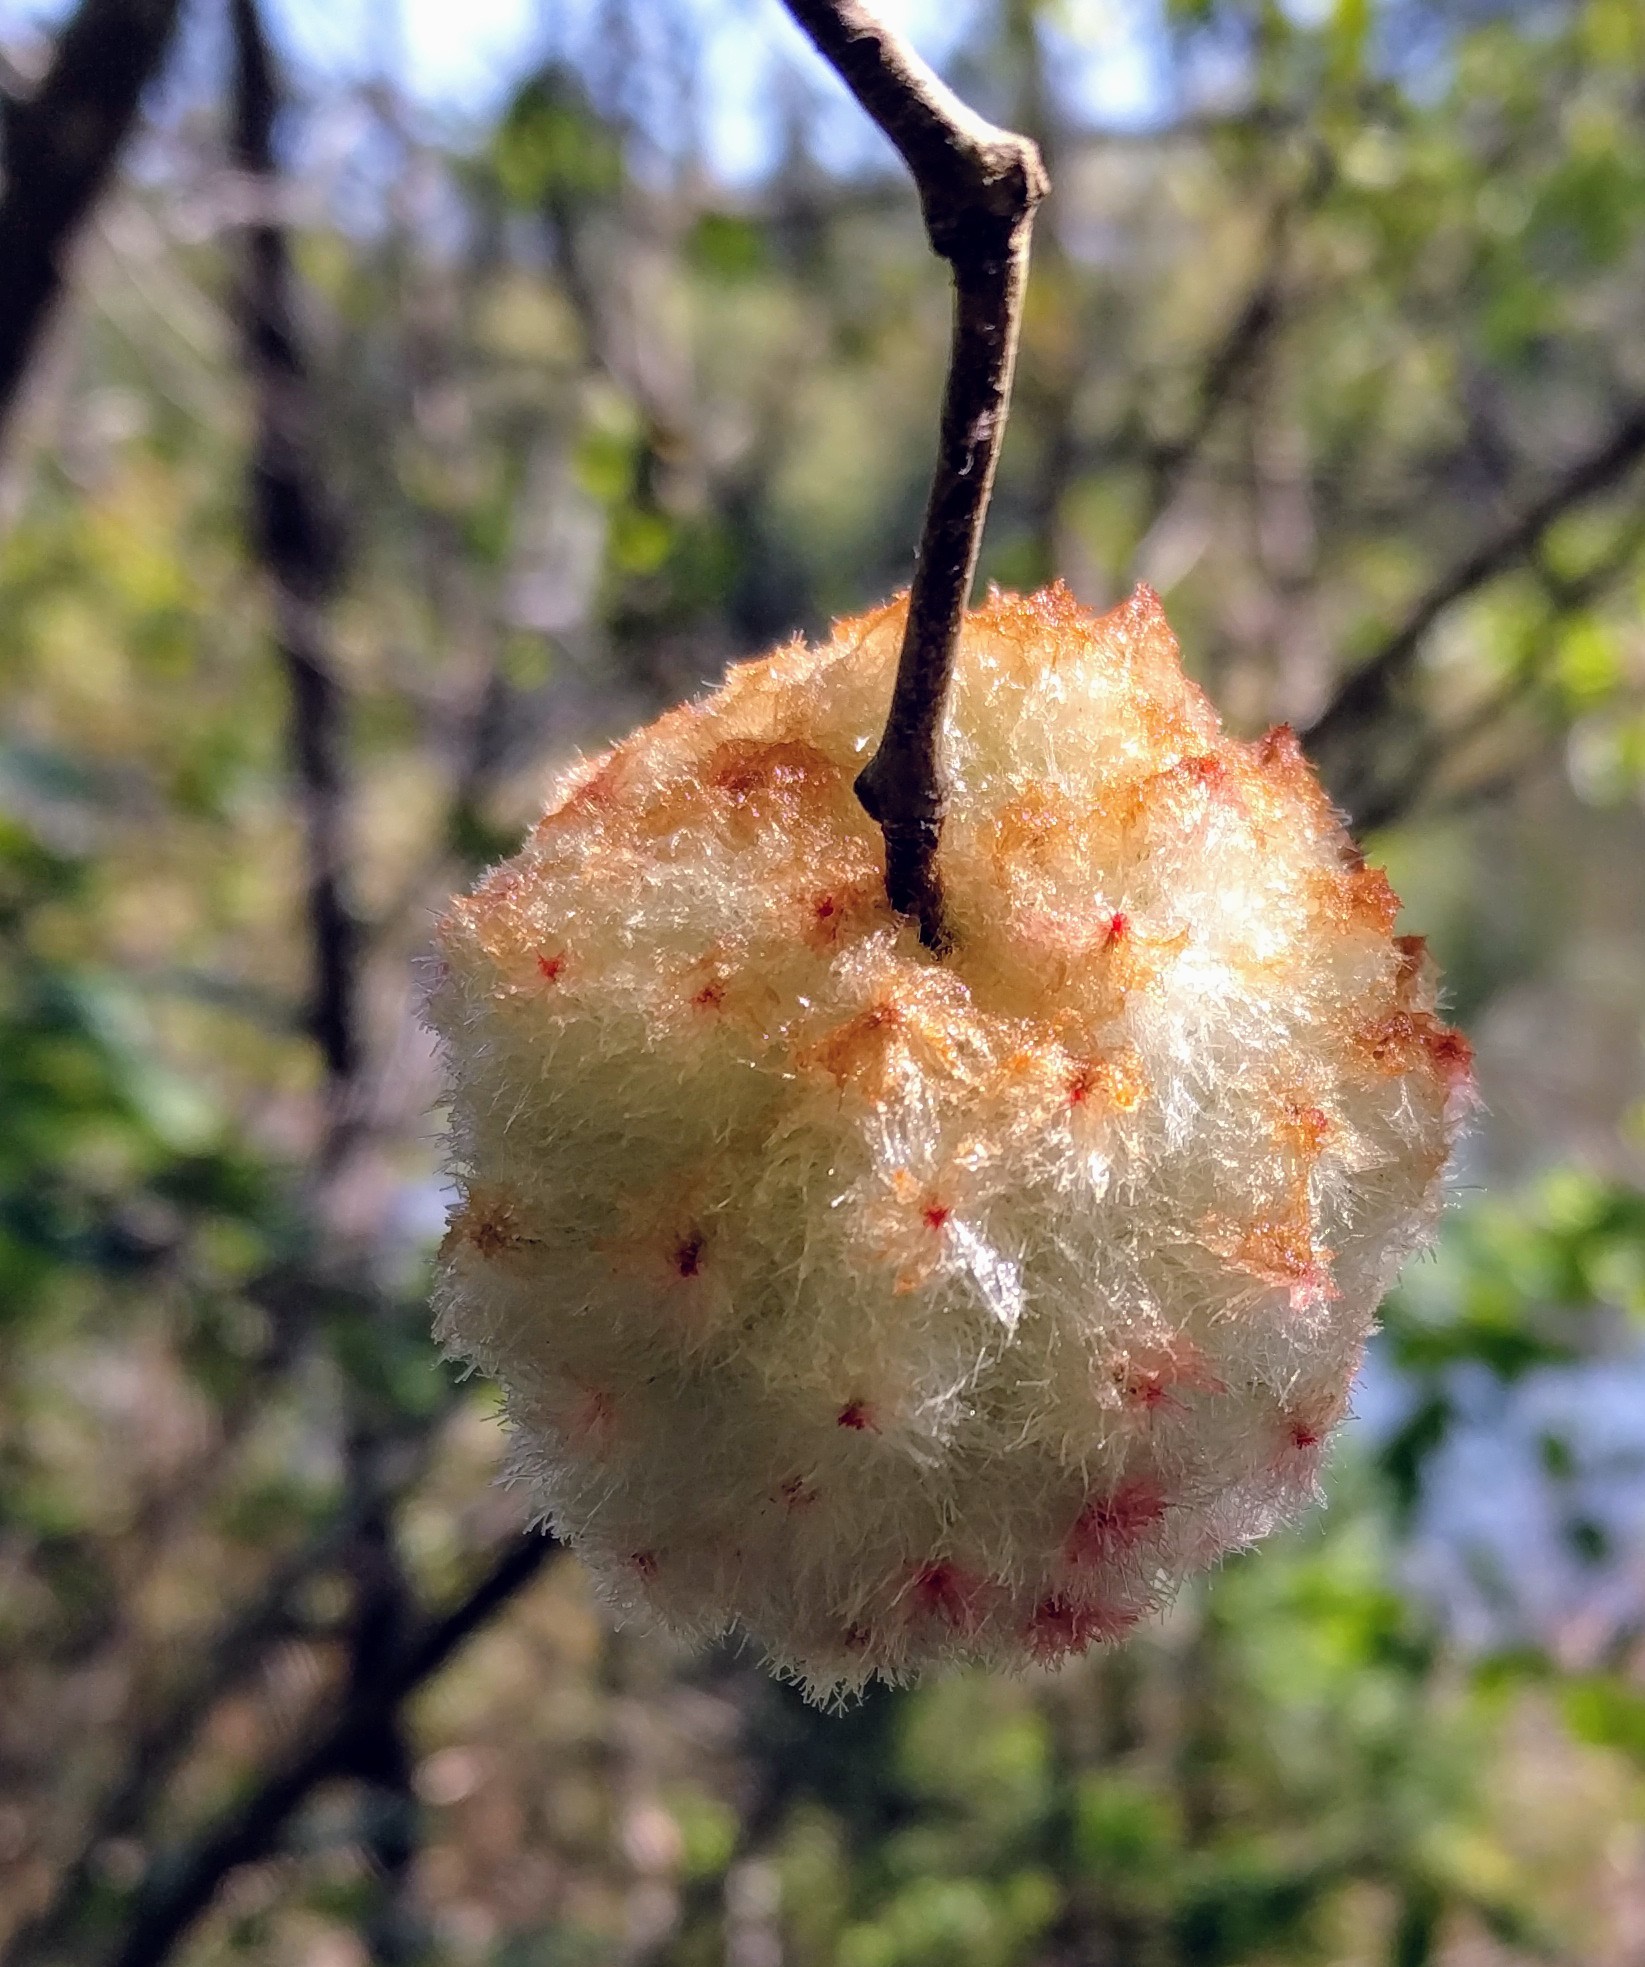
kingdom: Animalia
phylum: Arthropoda
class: Insecta
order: Hymenoptera
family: Cynipidae
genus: Callirhytis
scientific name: Callirhytis
